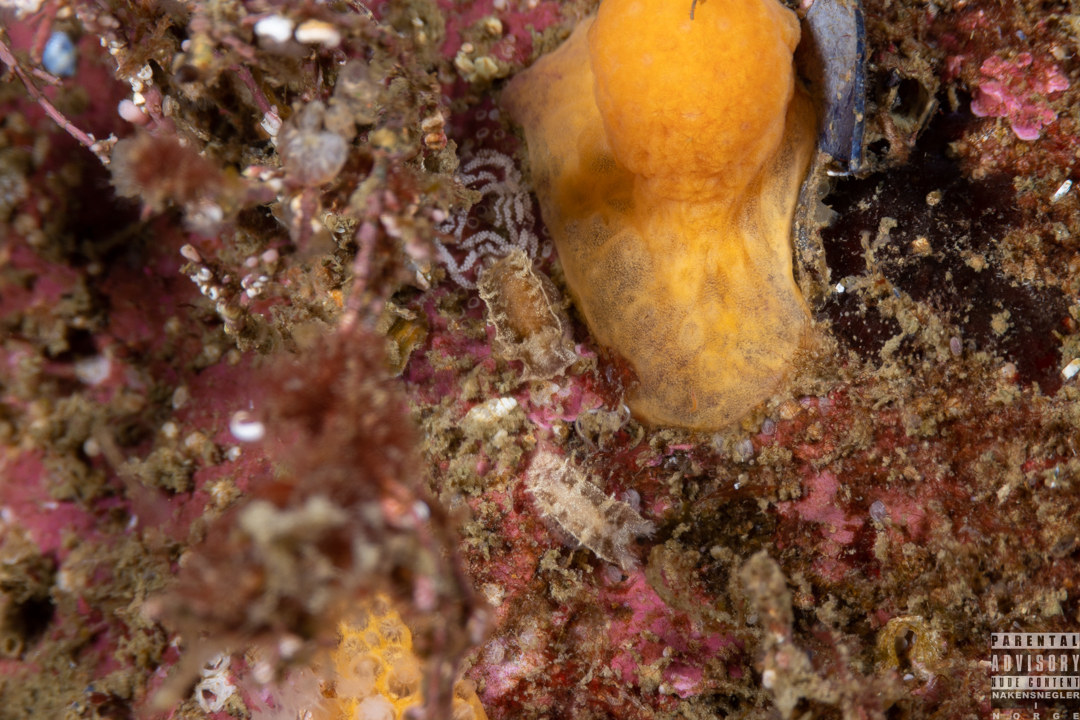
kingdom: Animalia
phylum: Mollusca
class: Gastropoda
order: Nudibranchia
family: Tritoniidae
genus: Duvaucelia
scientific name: Duvaucelia plebeia
